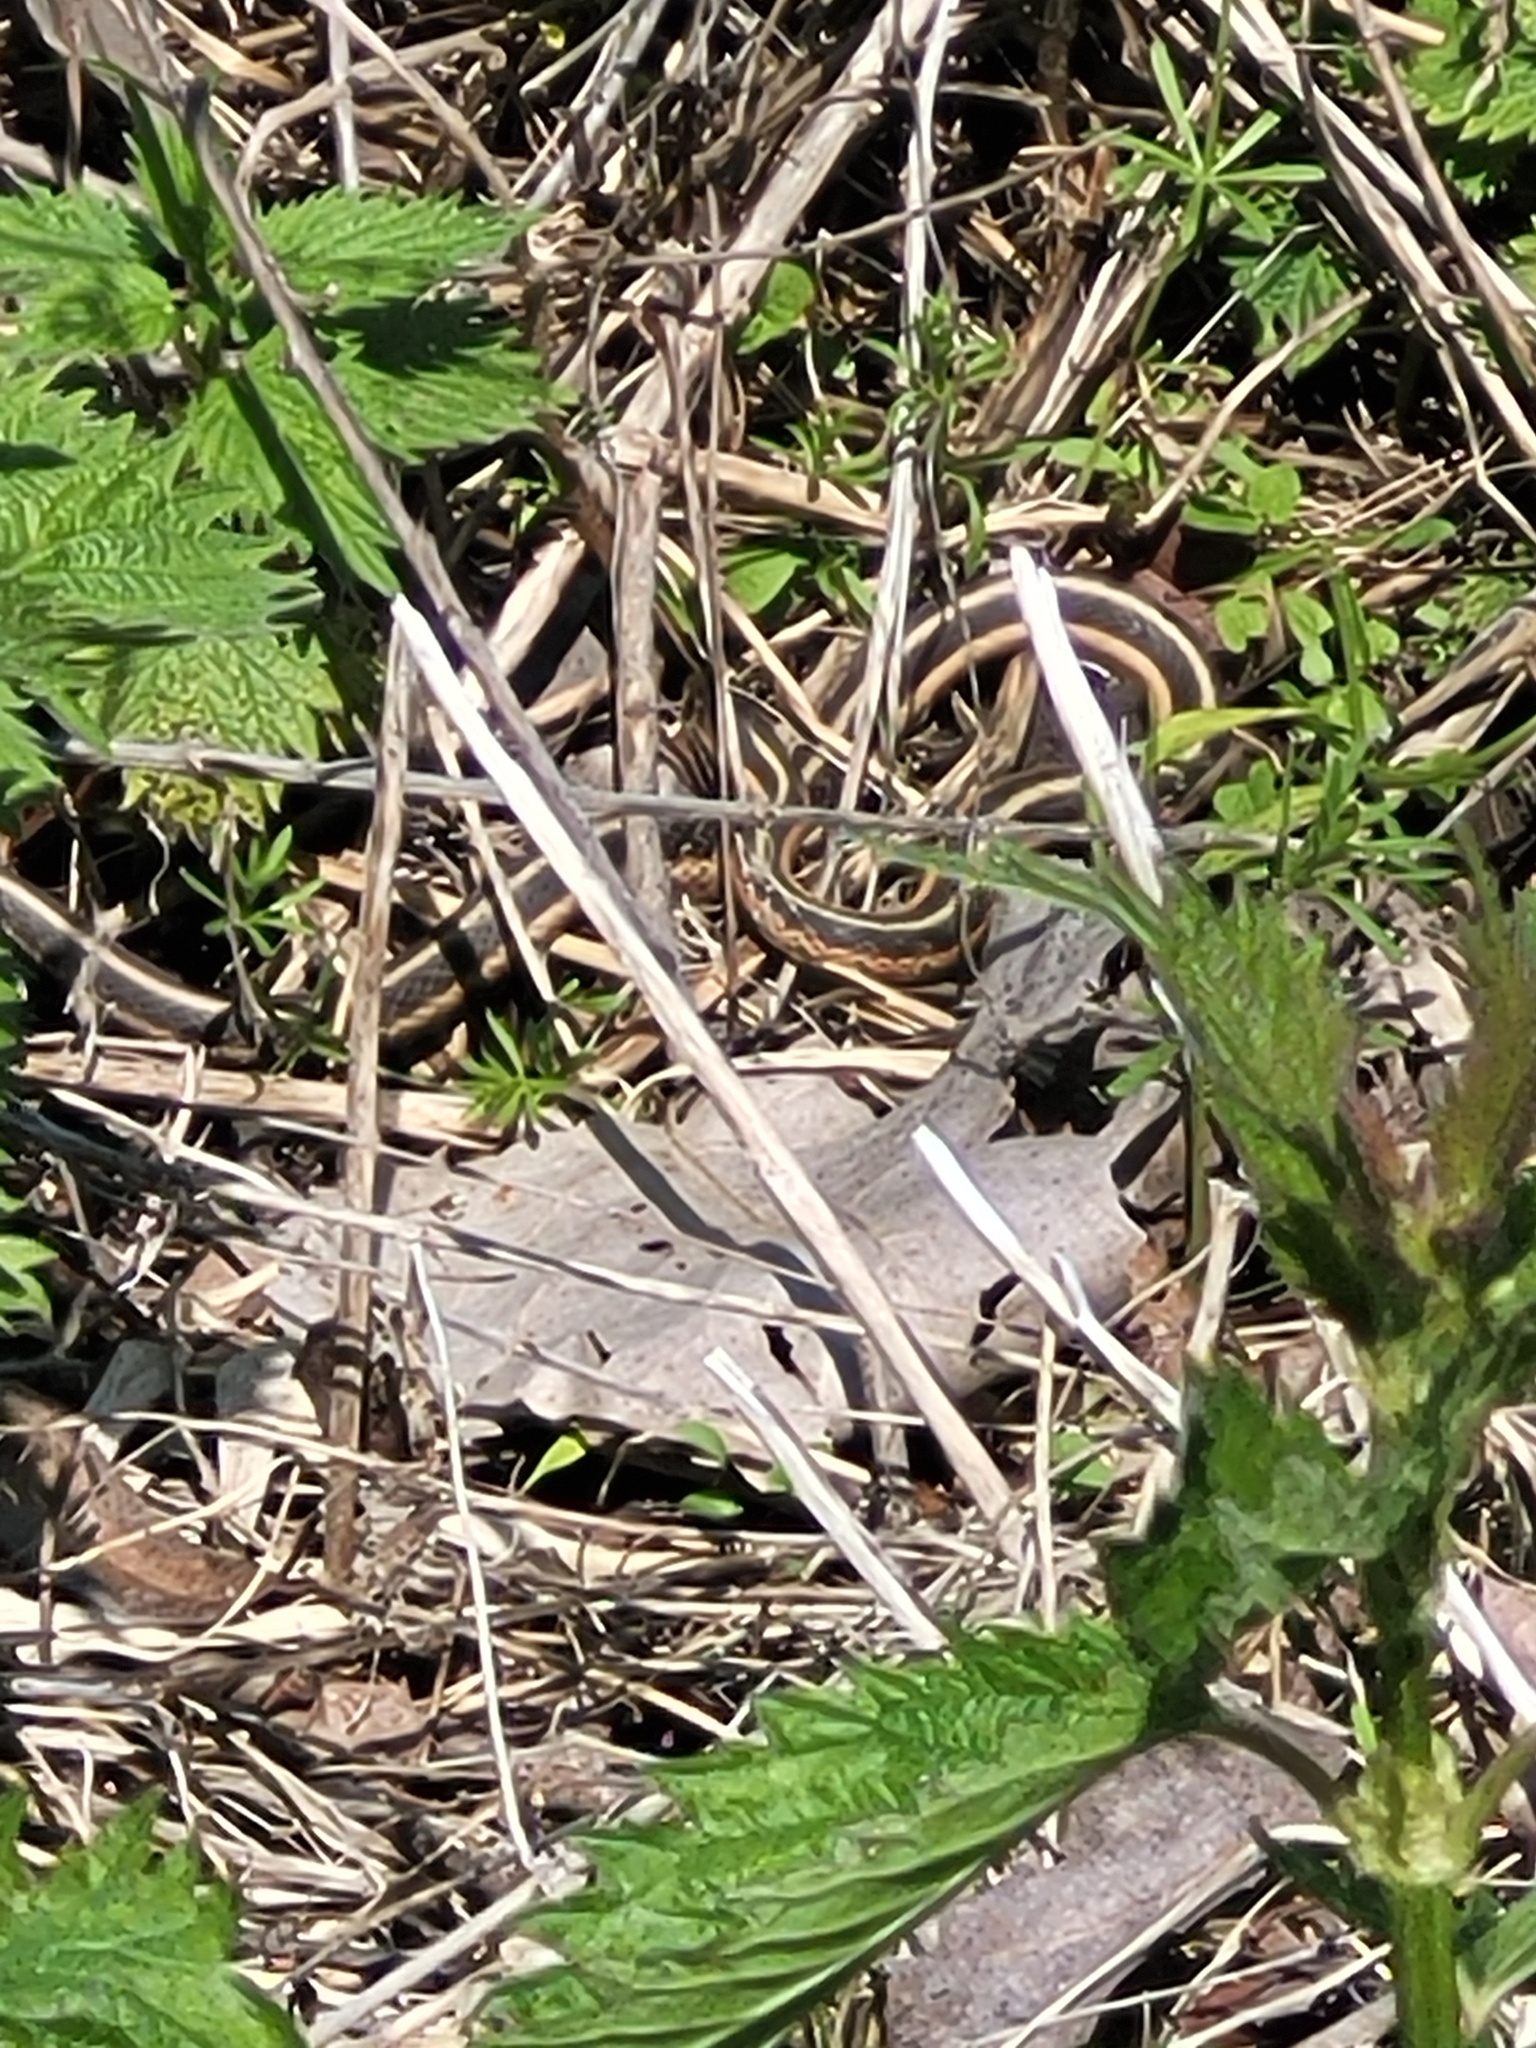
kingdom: Animalia
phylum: Chordata
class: Squamata
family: Colubridae
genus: Thamnophis
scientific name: Thamnophis sirtalis
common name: Common garter snake
